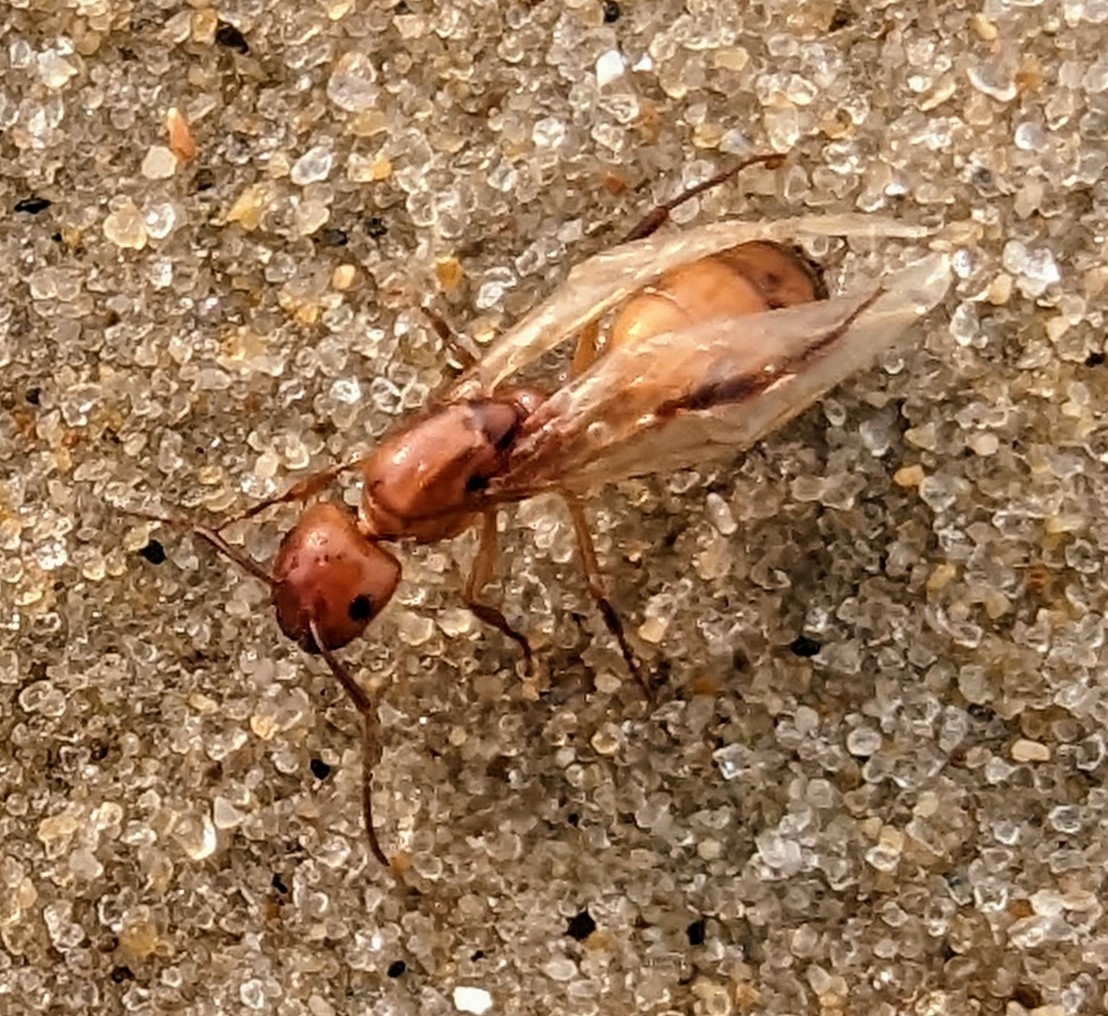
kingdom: Animalia
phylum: Arthropoda
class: Insecta
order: Hymenoptera
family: Formicidae
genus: Camponotus
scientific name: Camponotus snellingi
